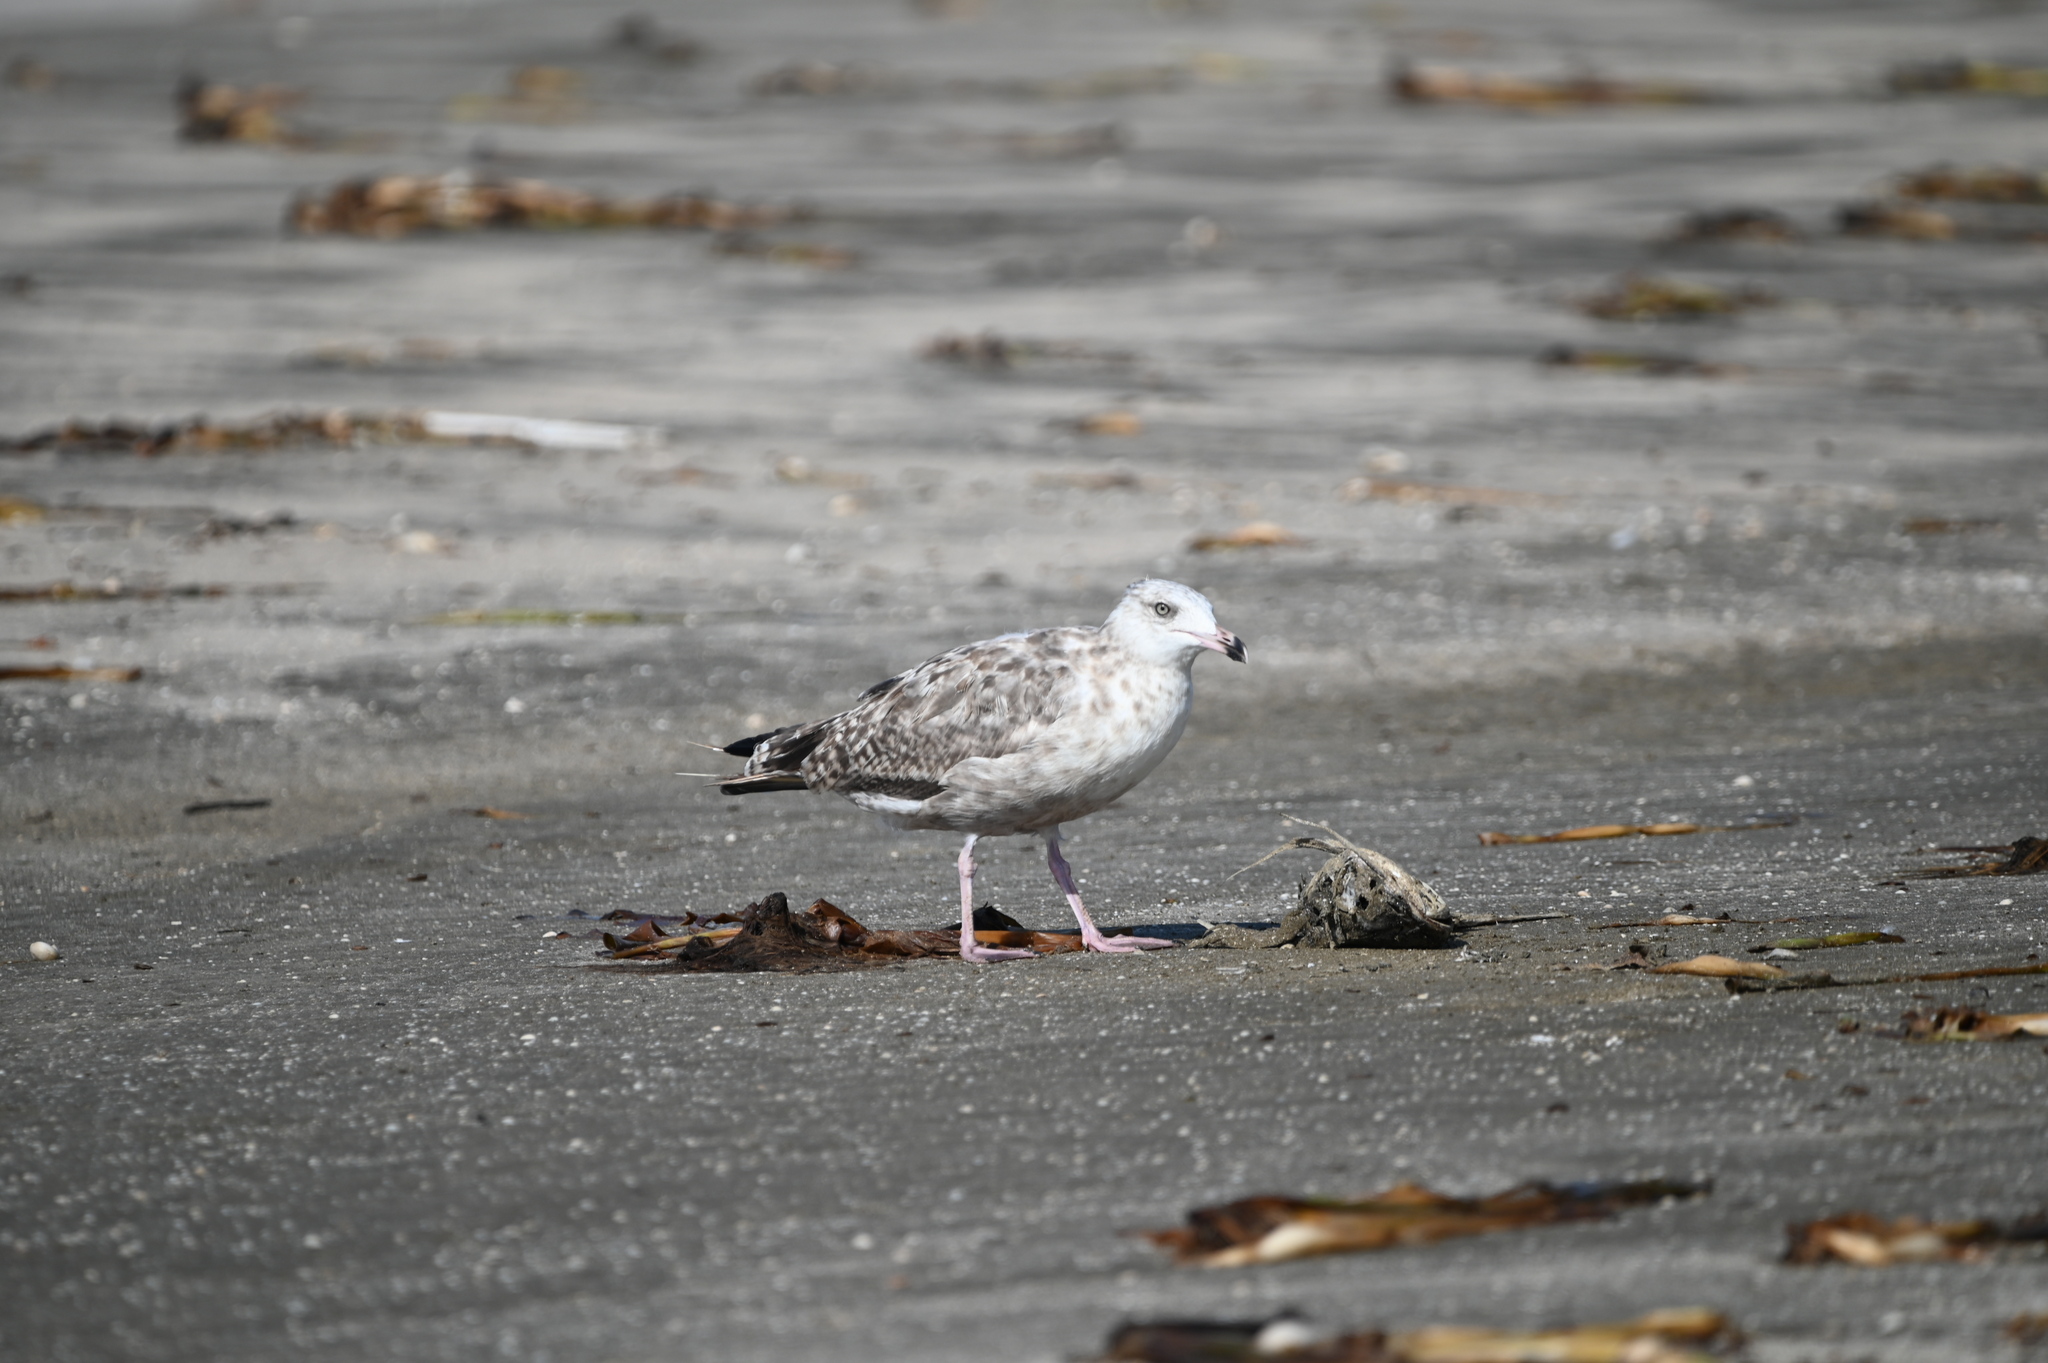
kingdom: Animalia
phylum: Chordata
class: Aves
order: Charadriiformes
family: Laridae
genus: Larus
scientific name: Larus argentatus
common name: Herring gull
